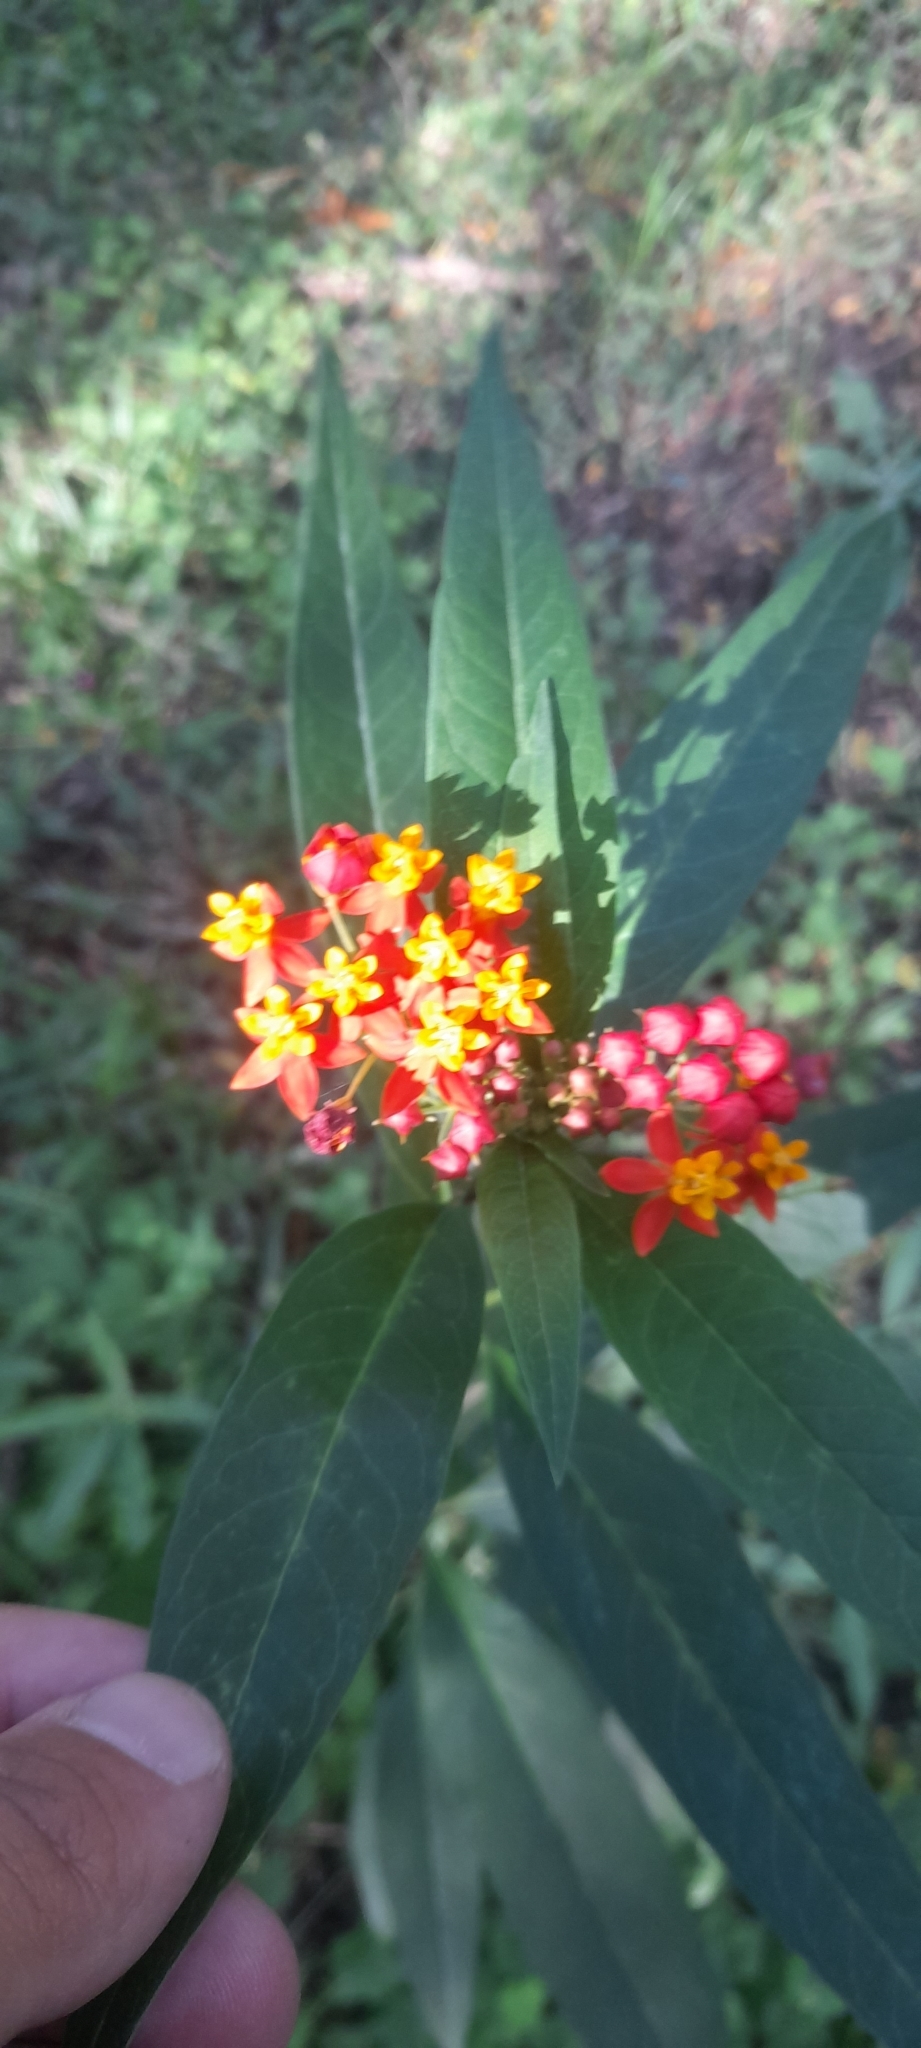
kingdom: Plantae
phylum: Tracheophyta
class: Magnoliopsida
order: Gentianales
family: Apocynaceae
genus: Asclepias
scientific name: Asclepias curassavica
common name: Bloodflower
